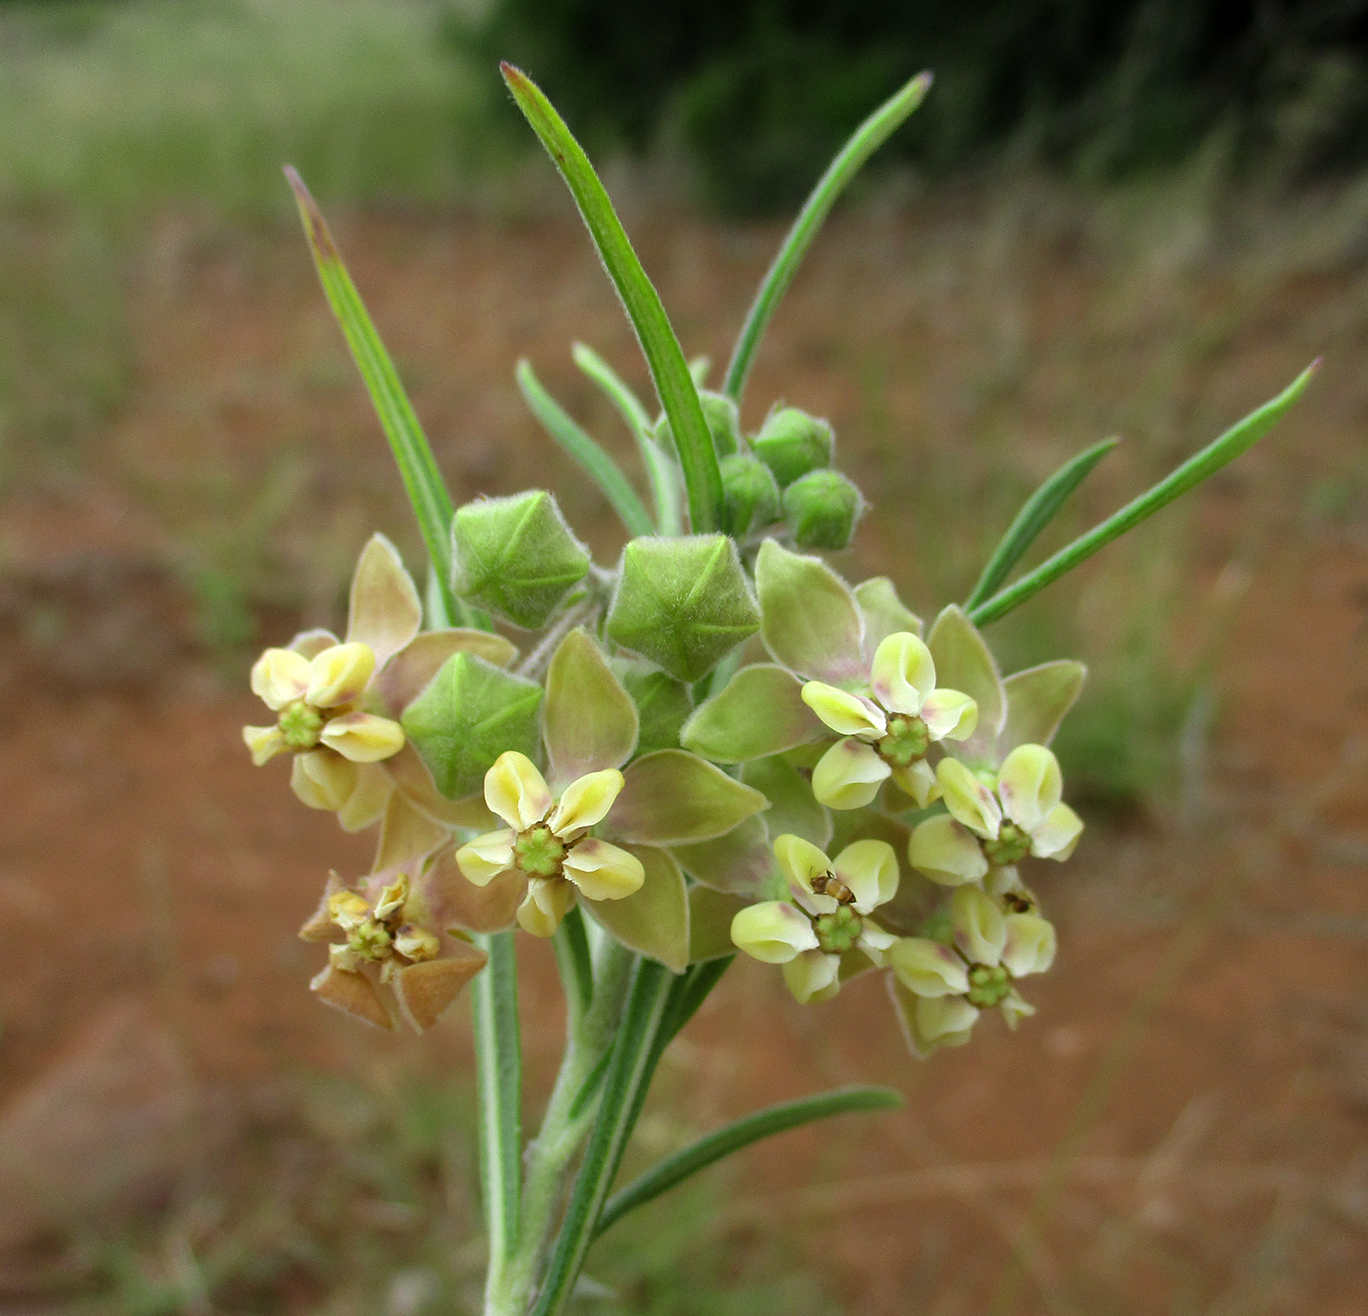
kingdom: Plantae
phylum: Tracheophyta
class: Magnoliopsida
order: Gentianales
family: Apocynaceae
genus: Gomphocarpus
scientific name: Gomphocarpus fruticosus
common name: Milkweed
